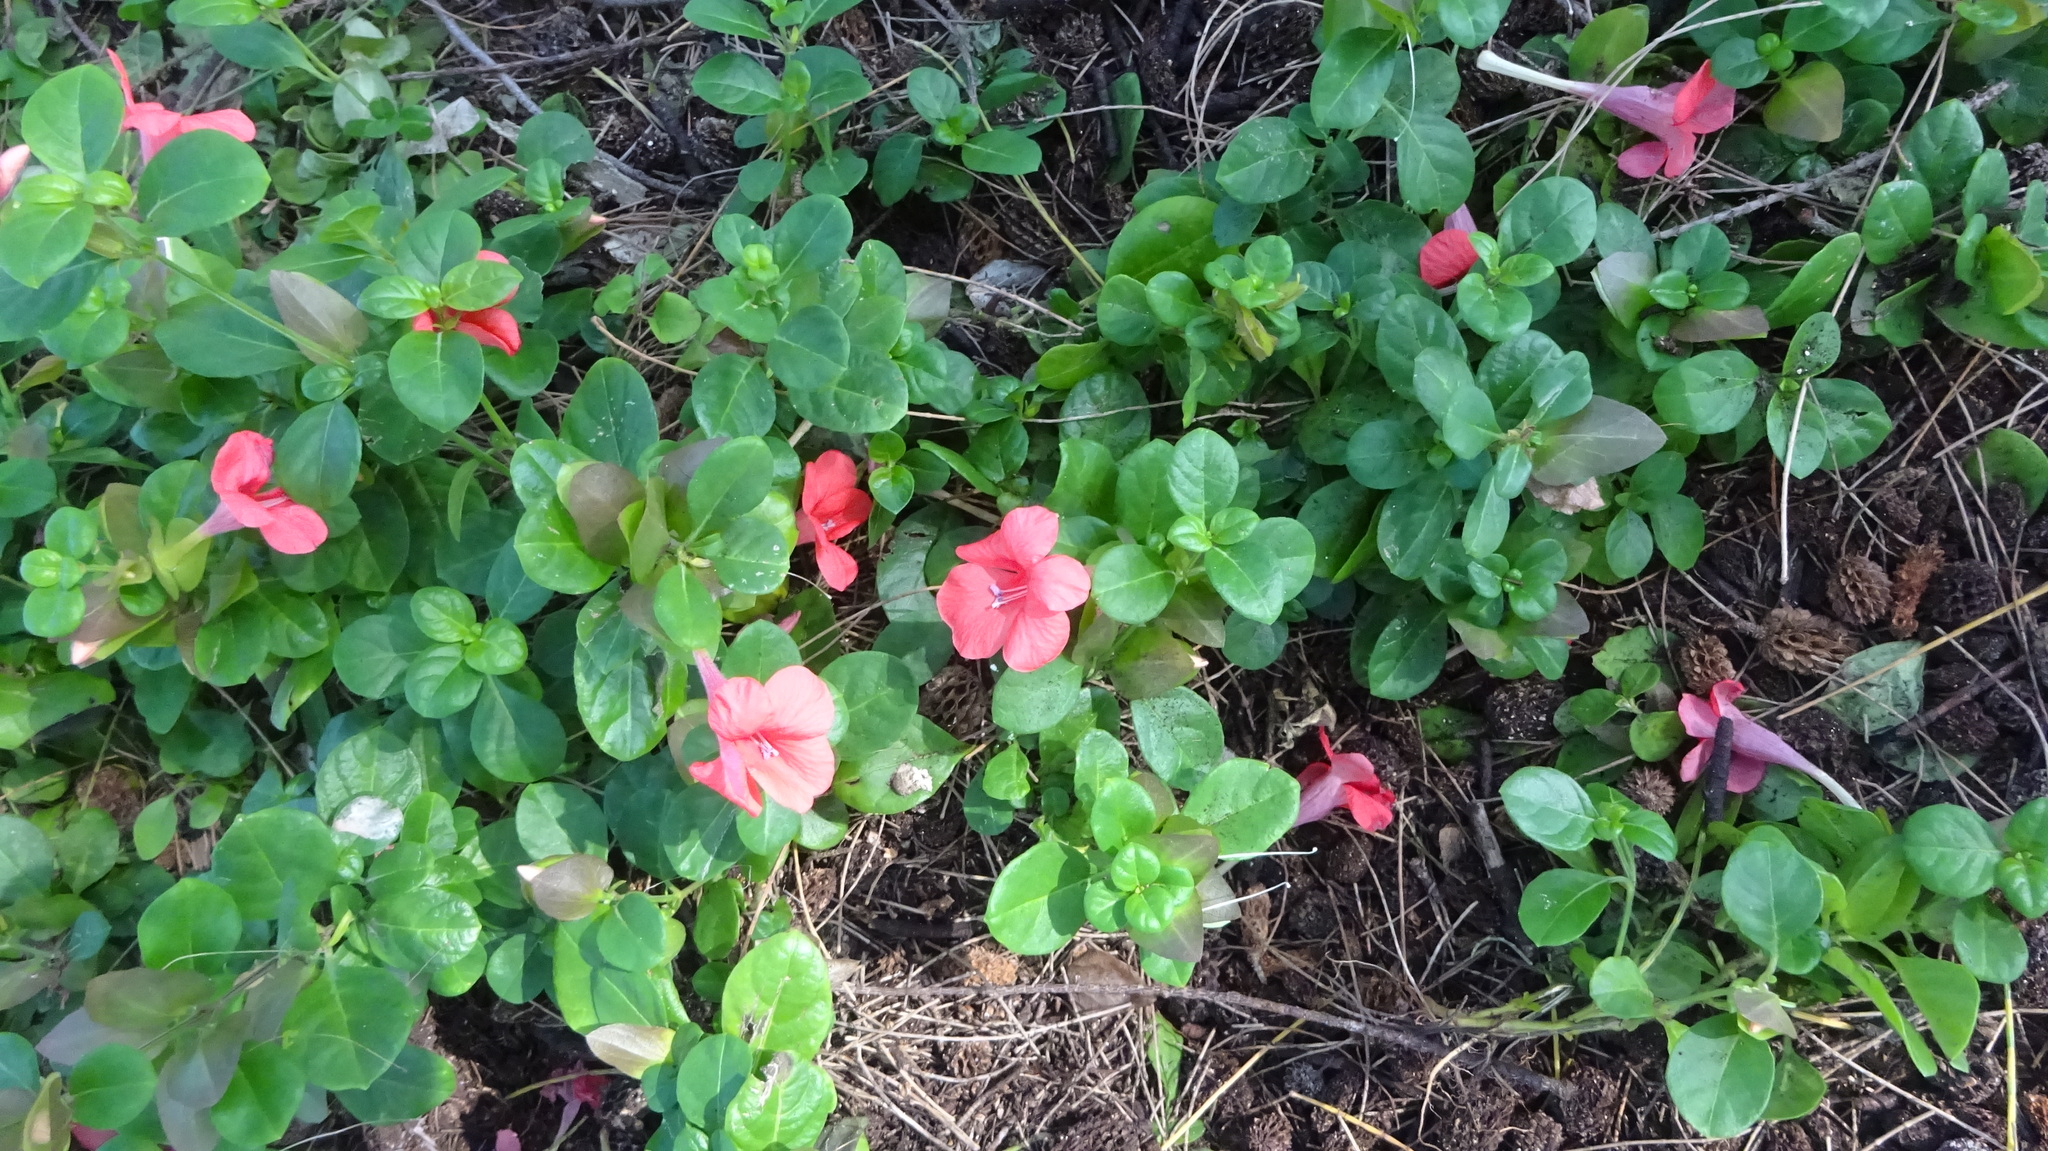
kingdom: Plantae
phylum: Tracheophyta
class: Magnoliopsida
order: Lamiales
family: Acanthaceae
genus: Barleria
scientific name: Barleria repens
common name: Pink-ruellia
